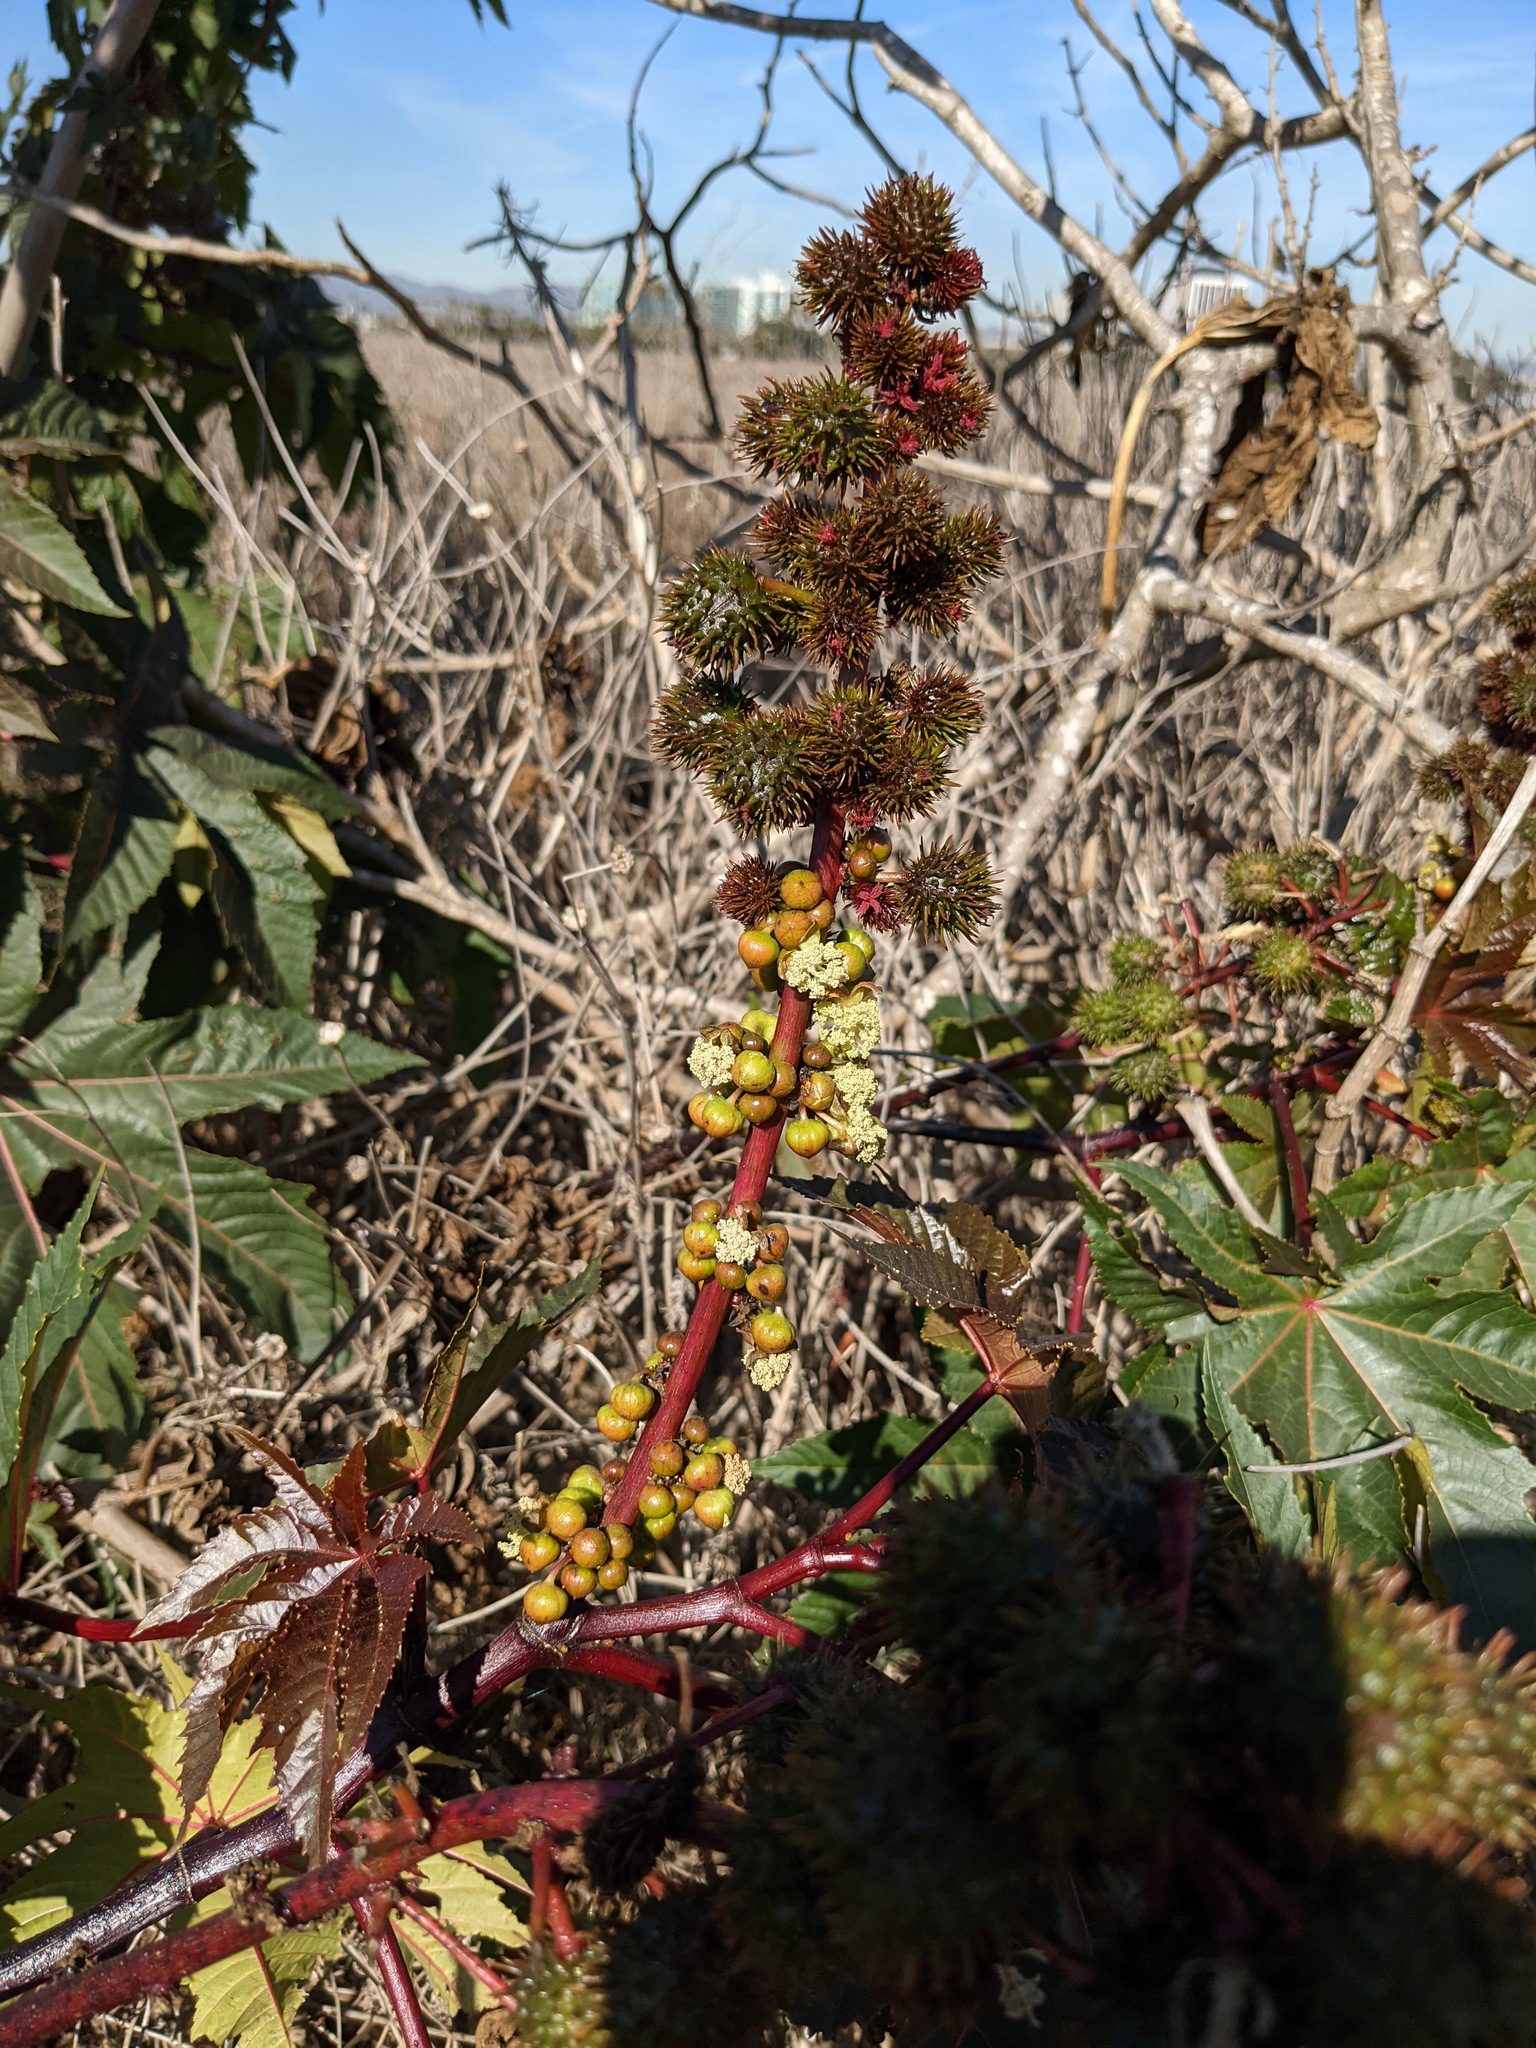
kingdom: Plantae
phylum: Tracheophyta
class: Magnoliopsida
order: Malpighiales
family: Euphorbiaceae
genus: Ricinus
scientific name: Ricinus communis
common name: Castor-oil-plant
